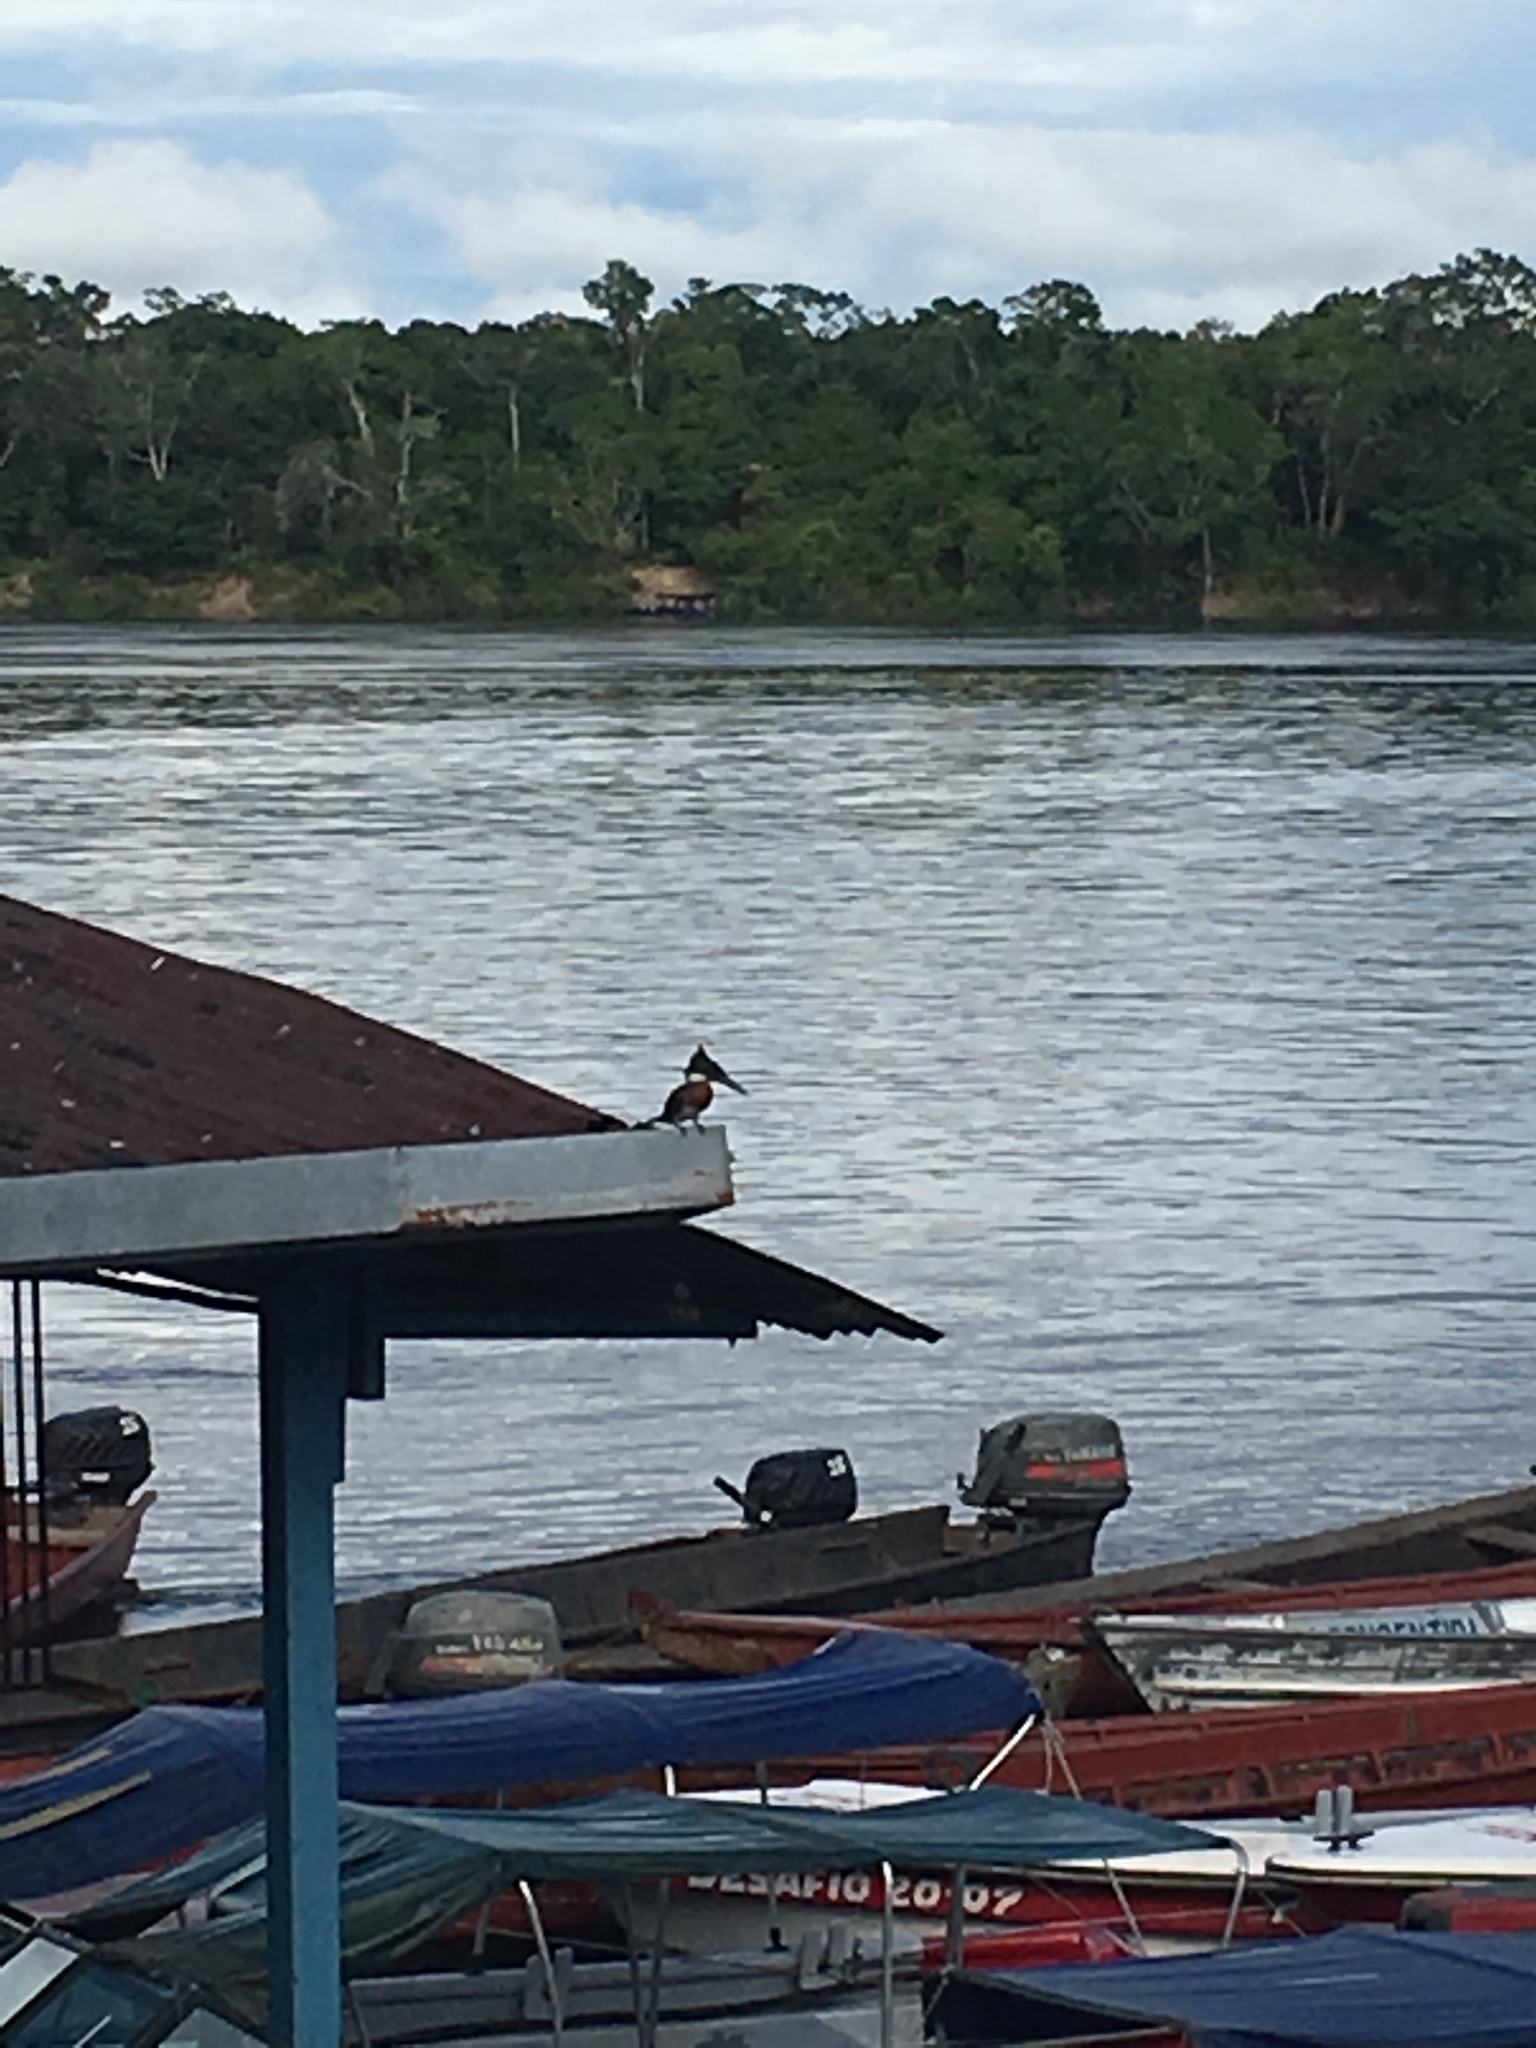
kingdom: Animalia
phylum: Chordata
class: Aves
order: Coraciiformes
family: Alcedinidae
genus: Chloroceryle
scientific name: Chloroceryle amazona
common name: Amazon kingfisher
